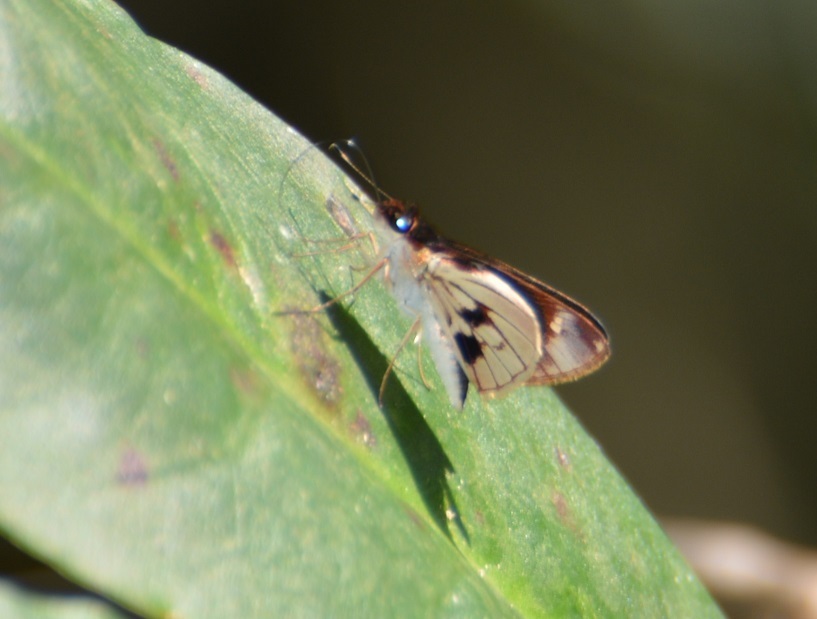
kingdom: Animalia
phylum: Arthropoda
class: Insecta
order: Lepidoptera
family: Hesperiidae
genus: Troyus
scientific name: Troyus fantasos
